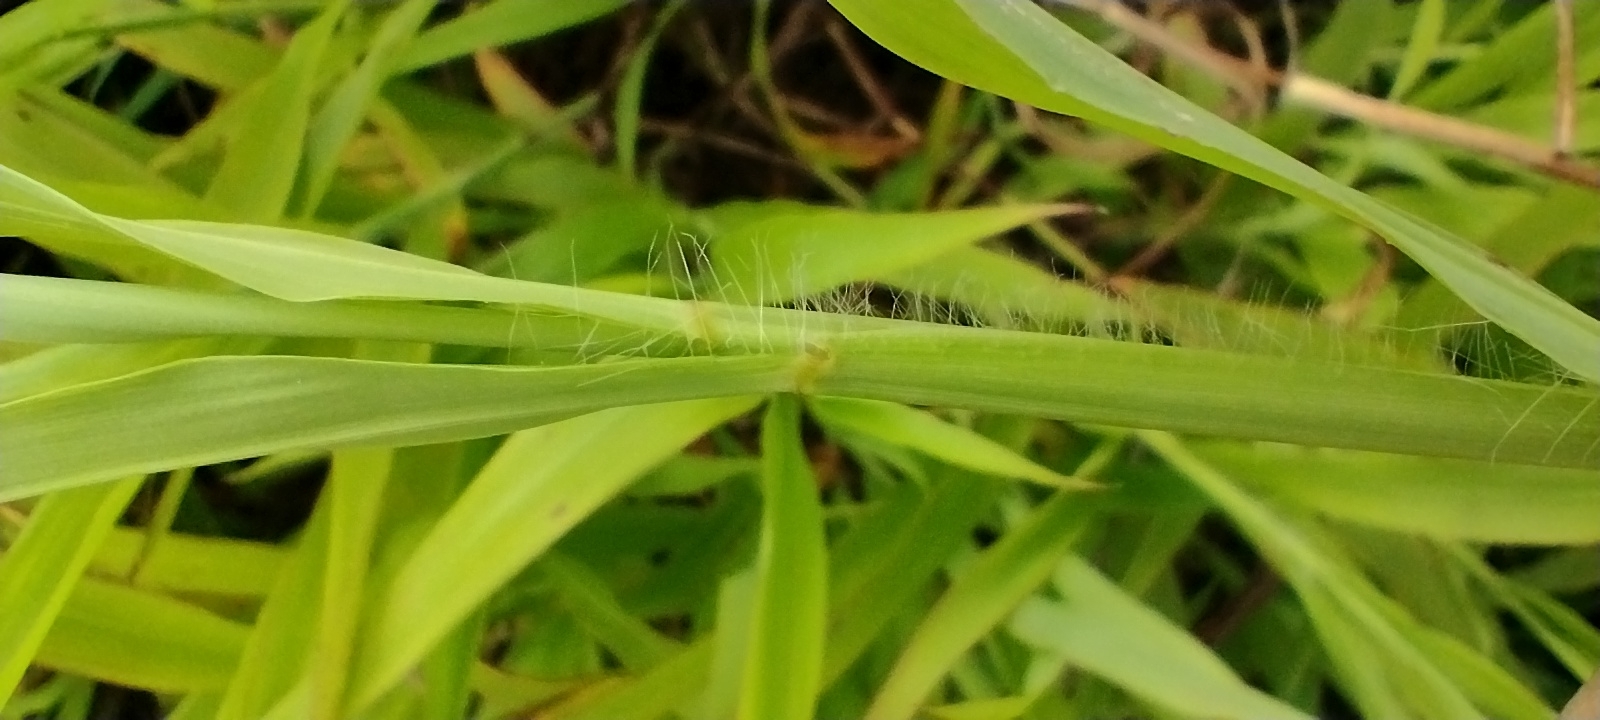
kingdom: Plantae
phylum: Tracheophyta
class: Liliopsida
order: Poales
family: Poaceae
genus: Ischaemum
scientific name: Ischaemum polystachyum
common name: Paddle grass
